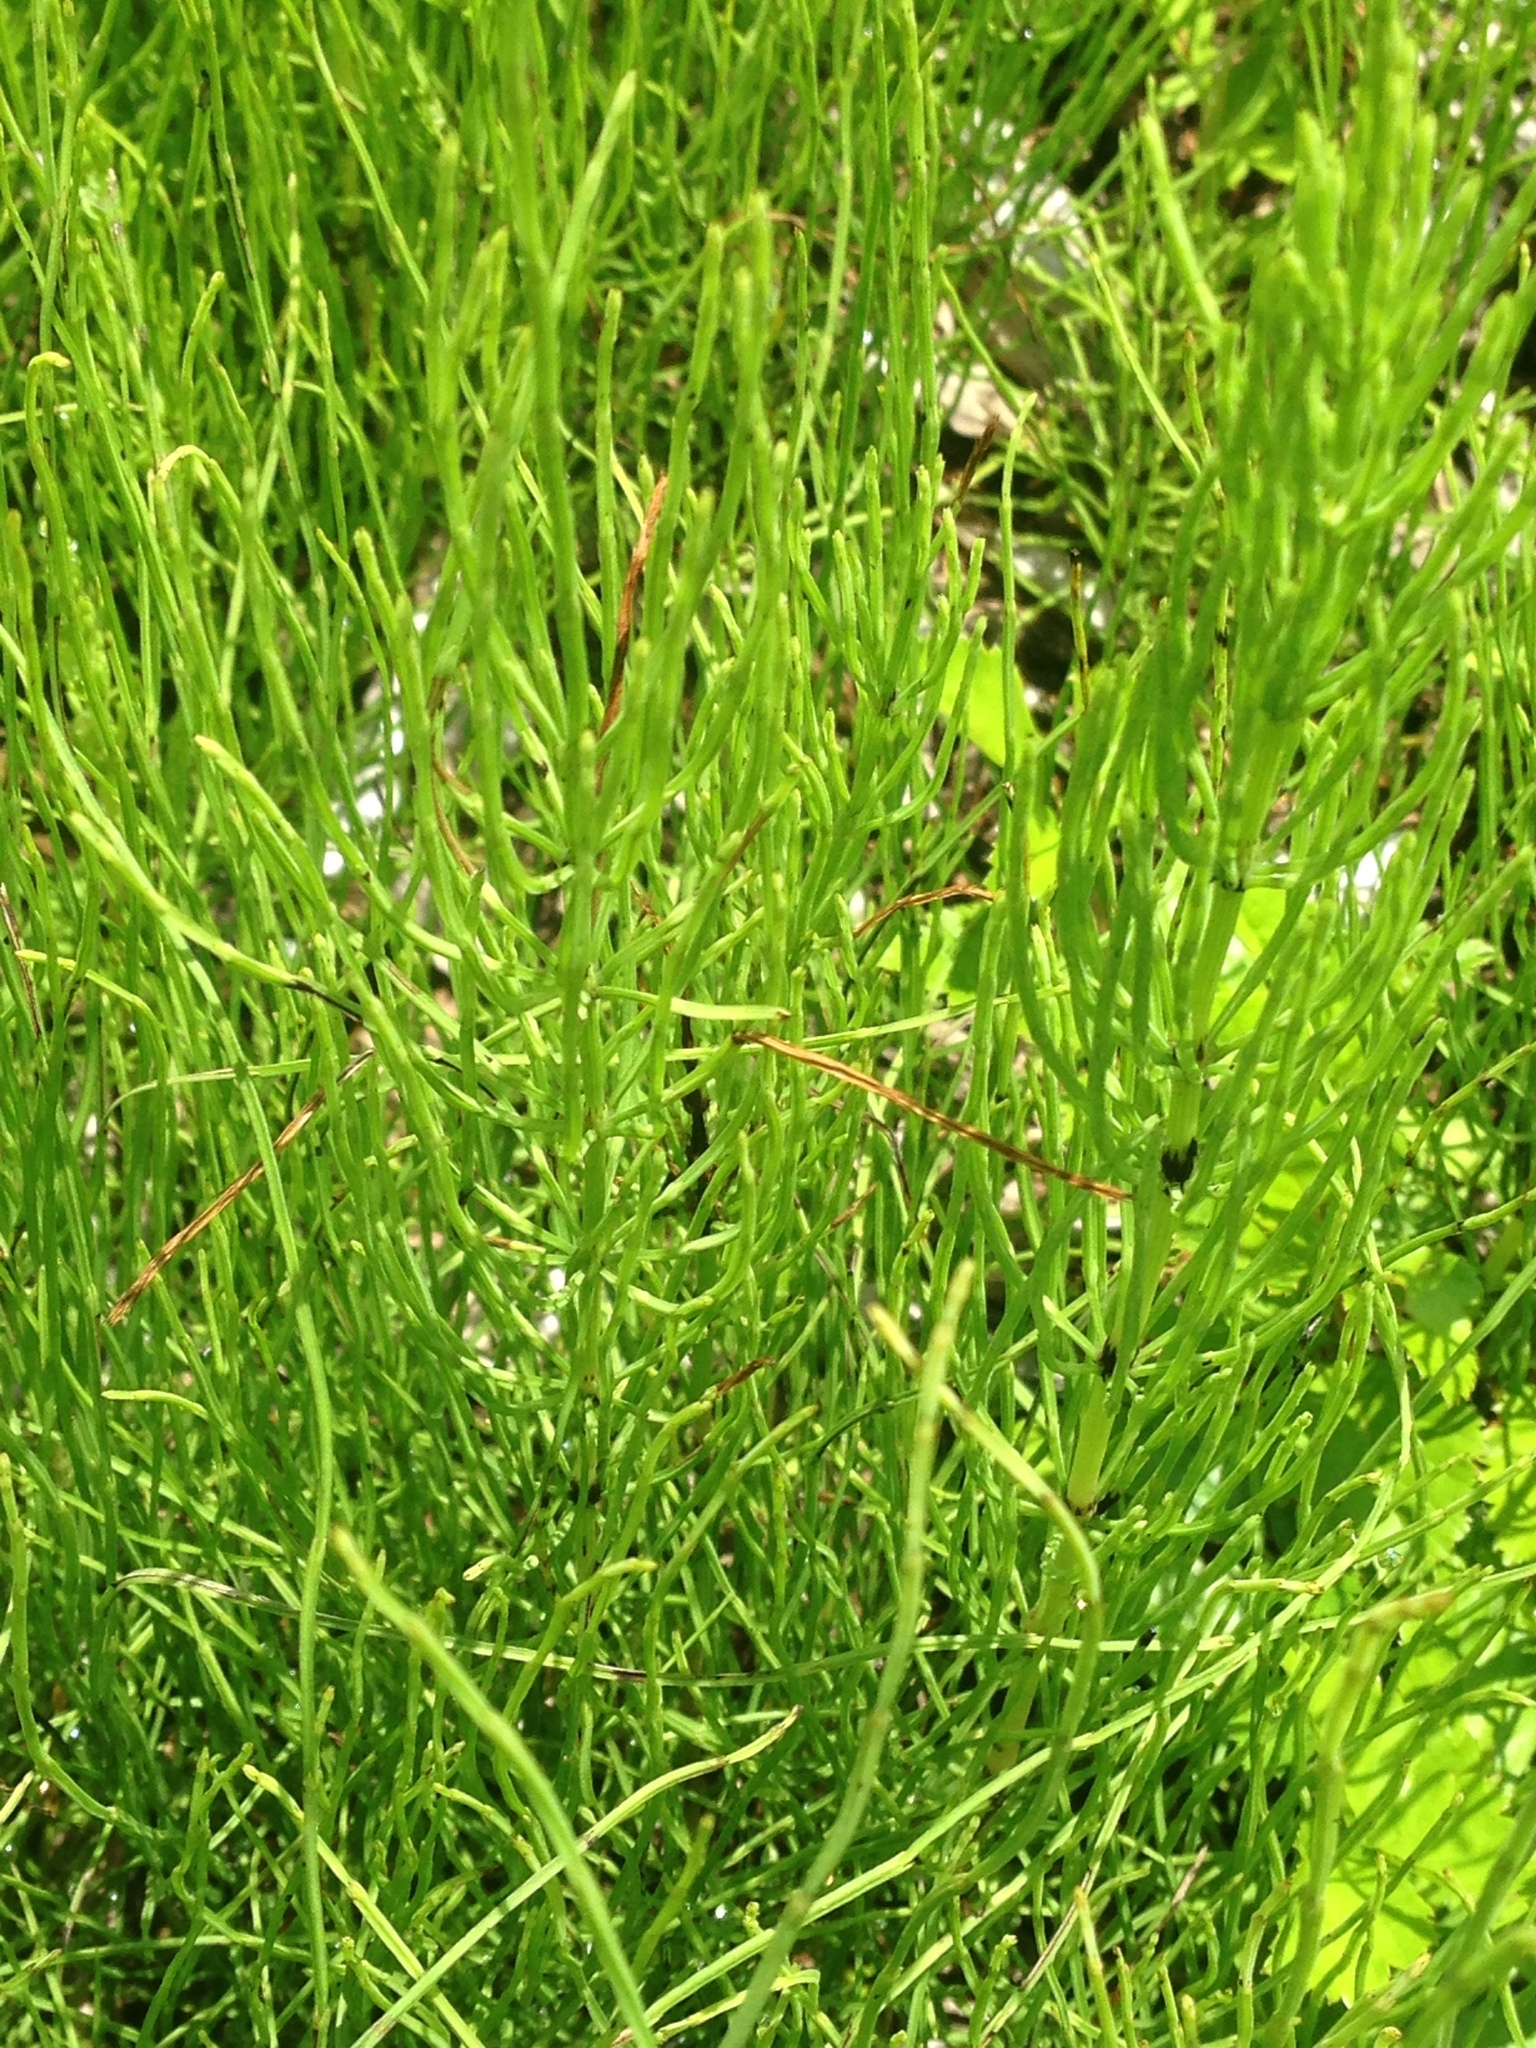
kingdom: Plantae
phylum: Tracheophyta
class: Polypodiopsida
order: Equisetales
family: Equisetaceae
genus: Equisetum
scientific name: Equisetum arvense
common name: Field horsetail
